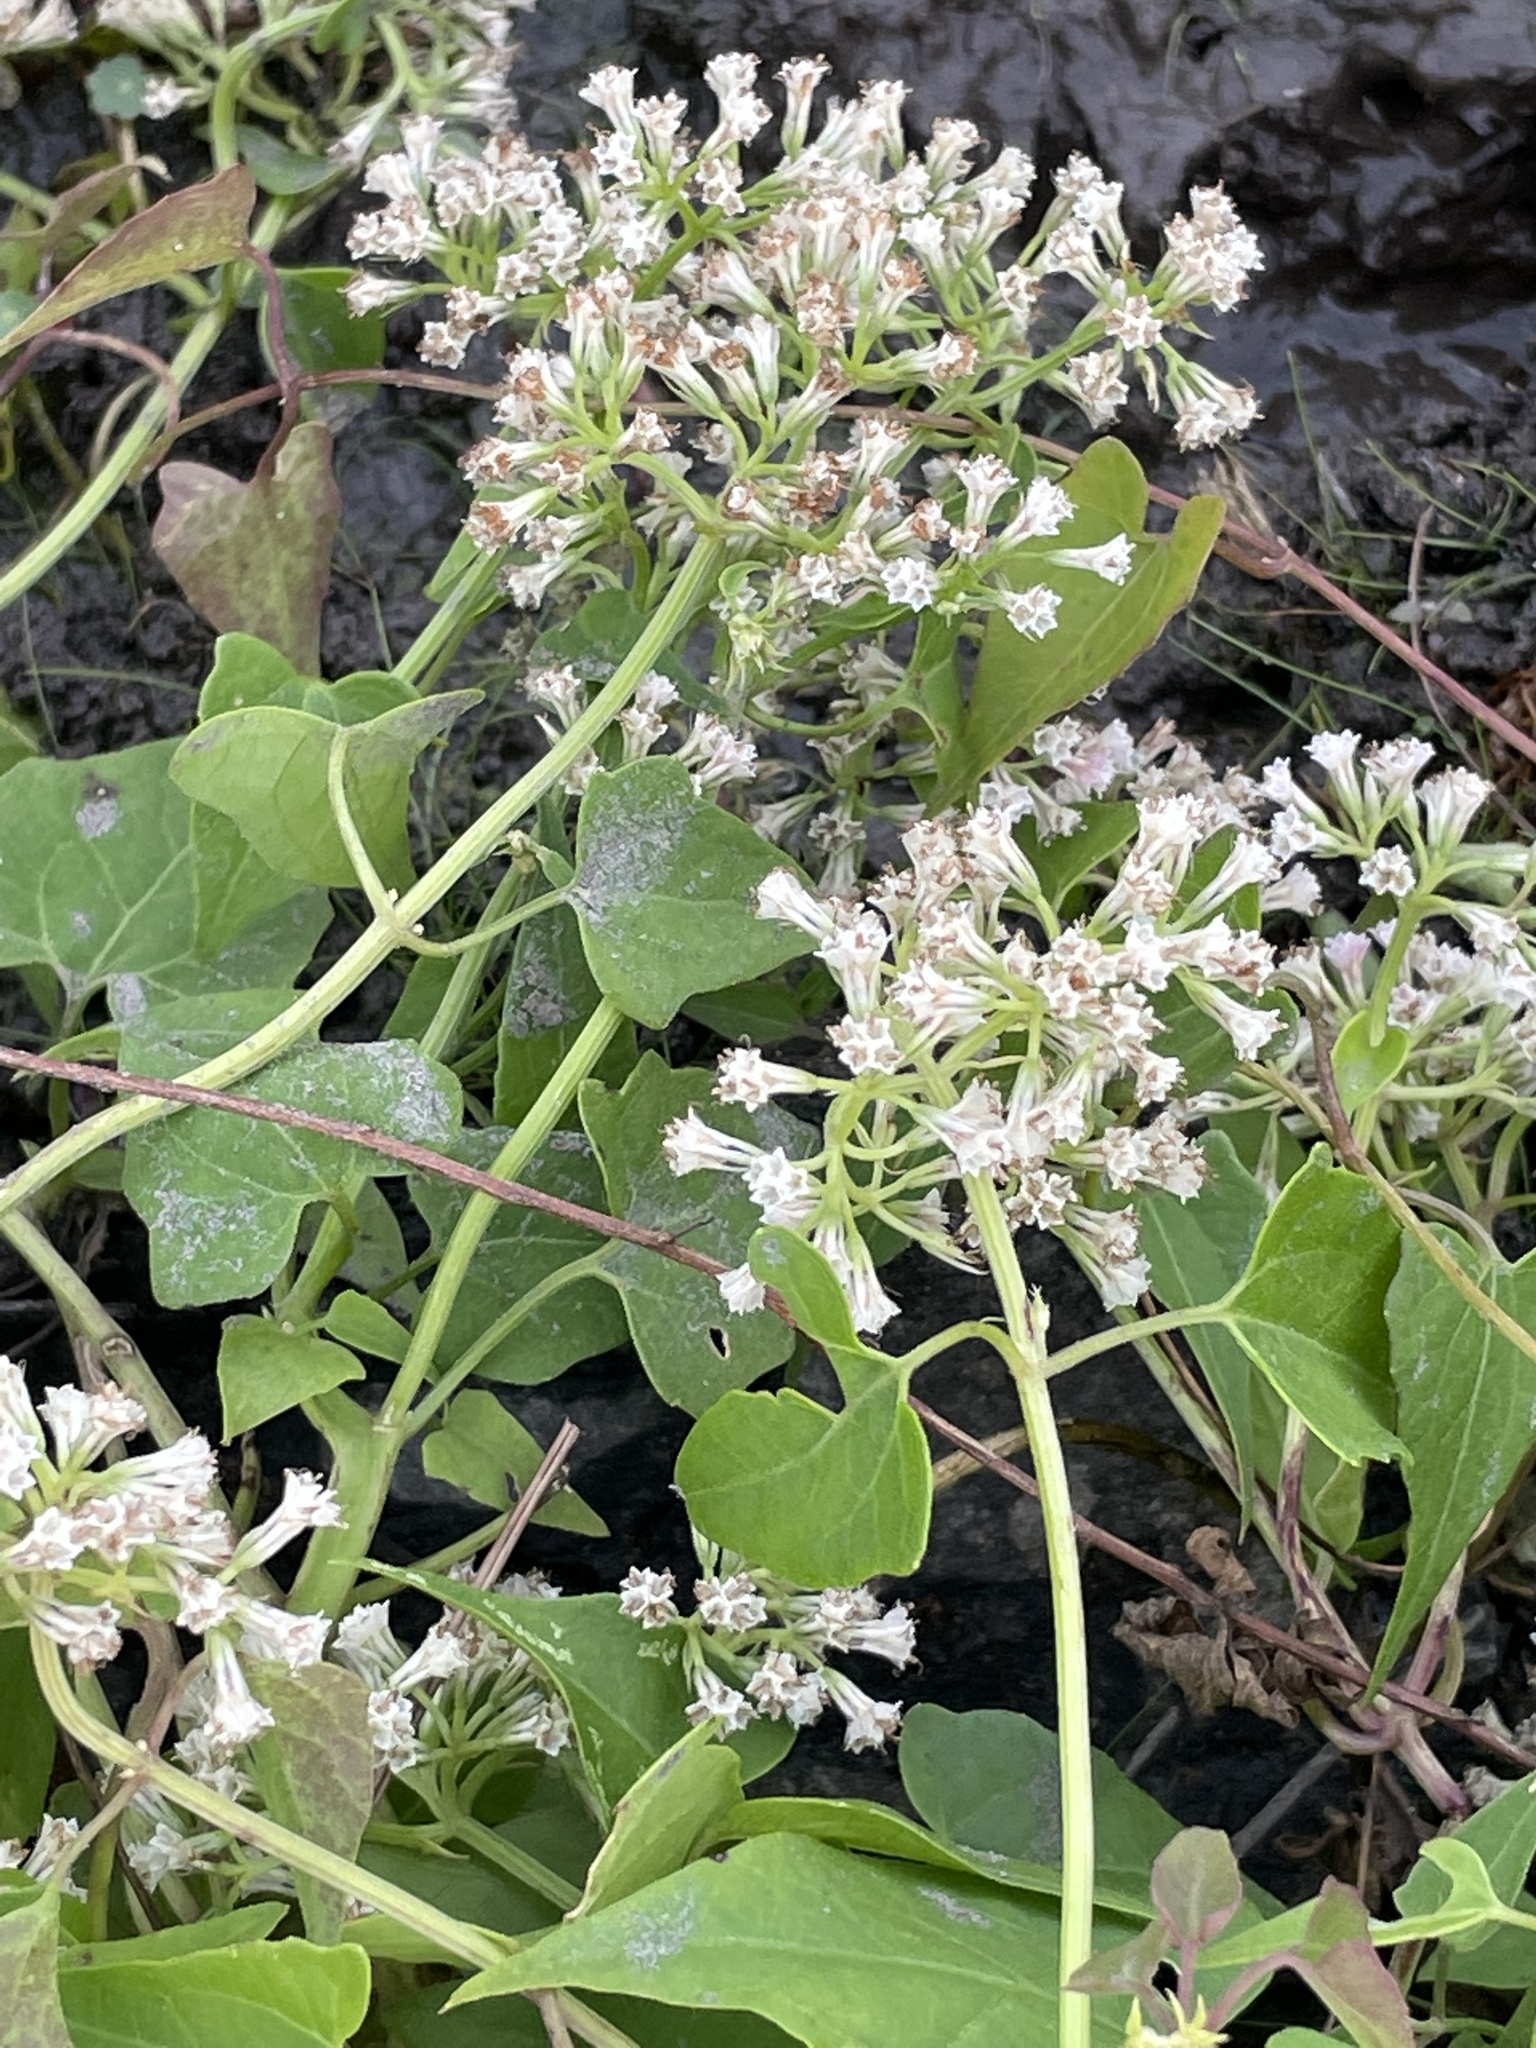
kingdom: Plantae
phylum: Tracheophyta
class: Magnoliopsida
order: Asterales
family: Asteraceae
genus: Mikania
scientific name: Mikania scandens
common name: Climbing hempvine
